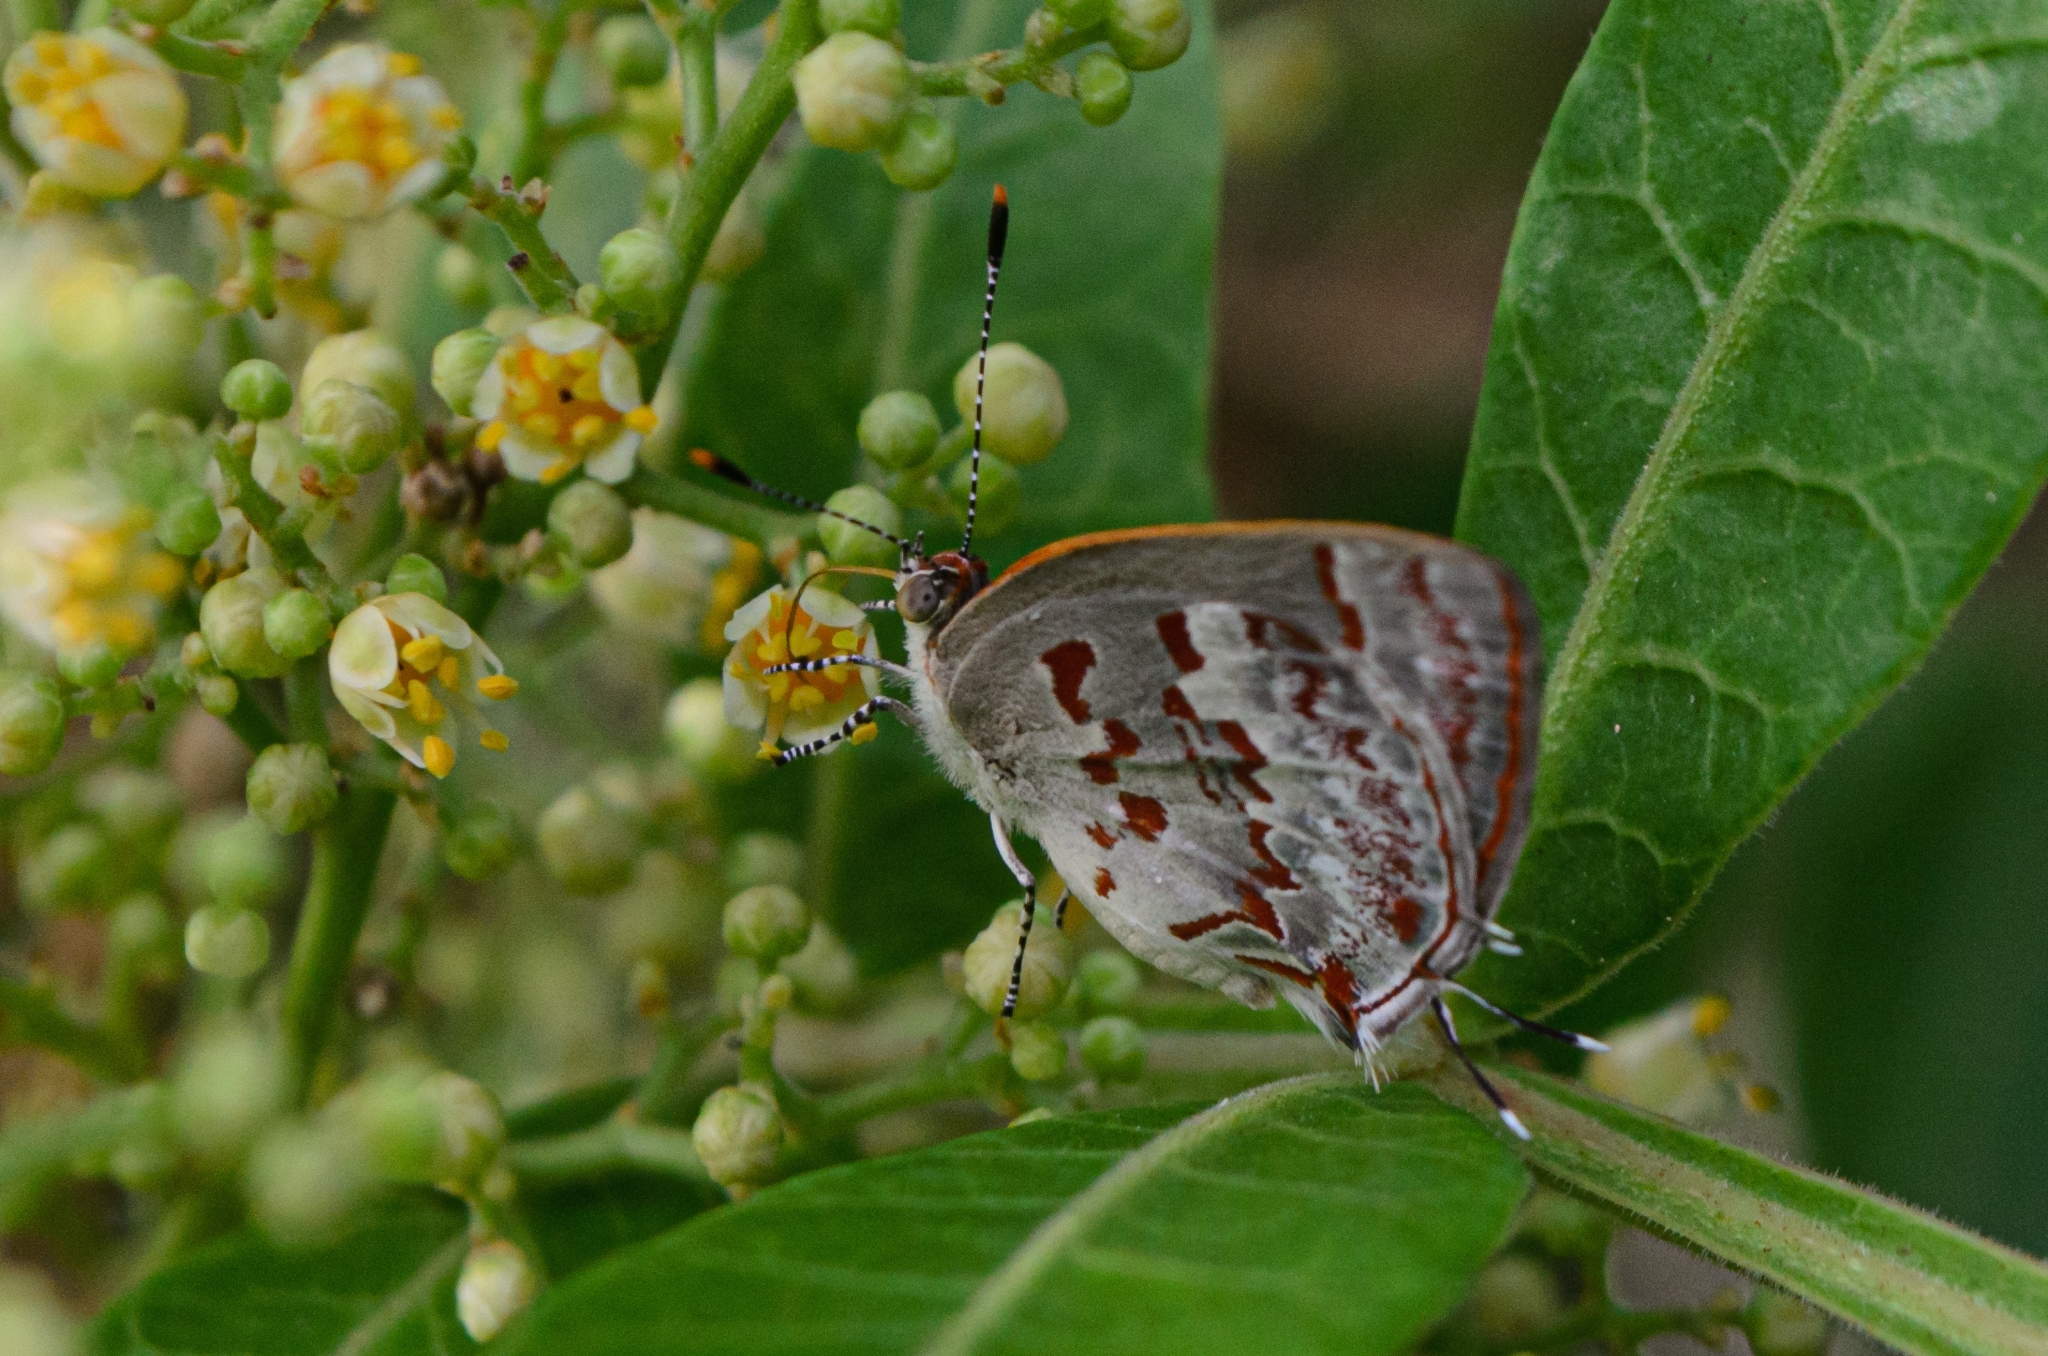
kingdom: Animalia
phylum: Arthropoda
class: Insecta
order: Lepidoptera
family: Lycaenidae
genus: Thecla
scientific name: Thecla cruenta
